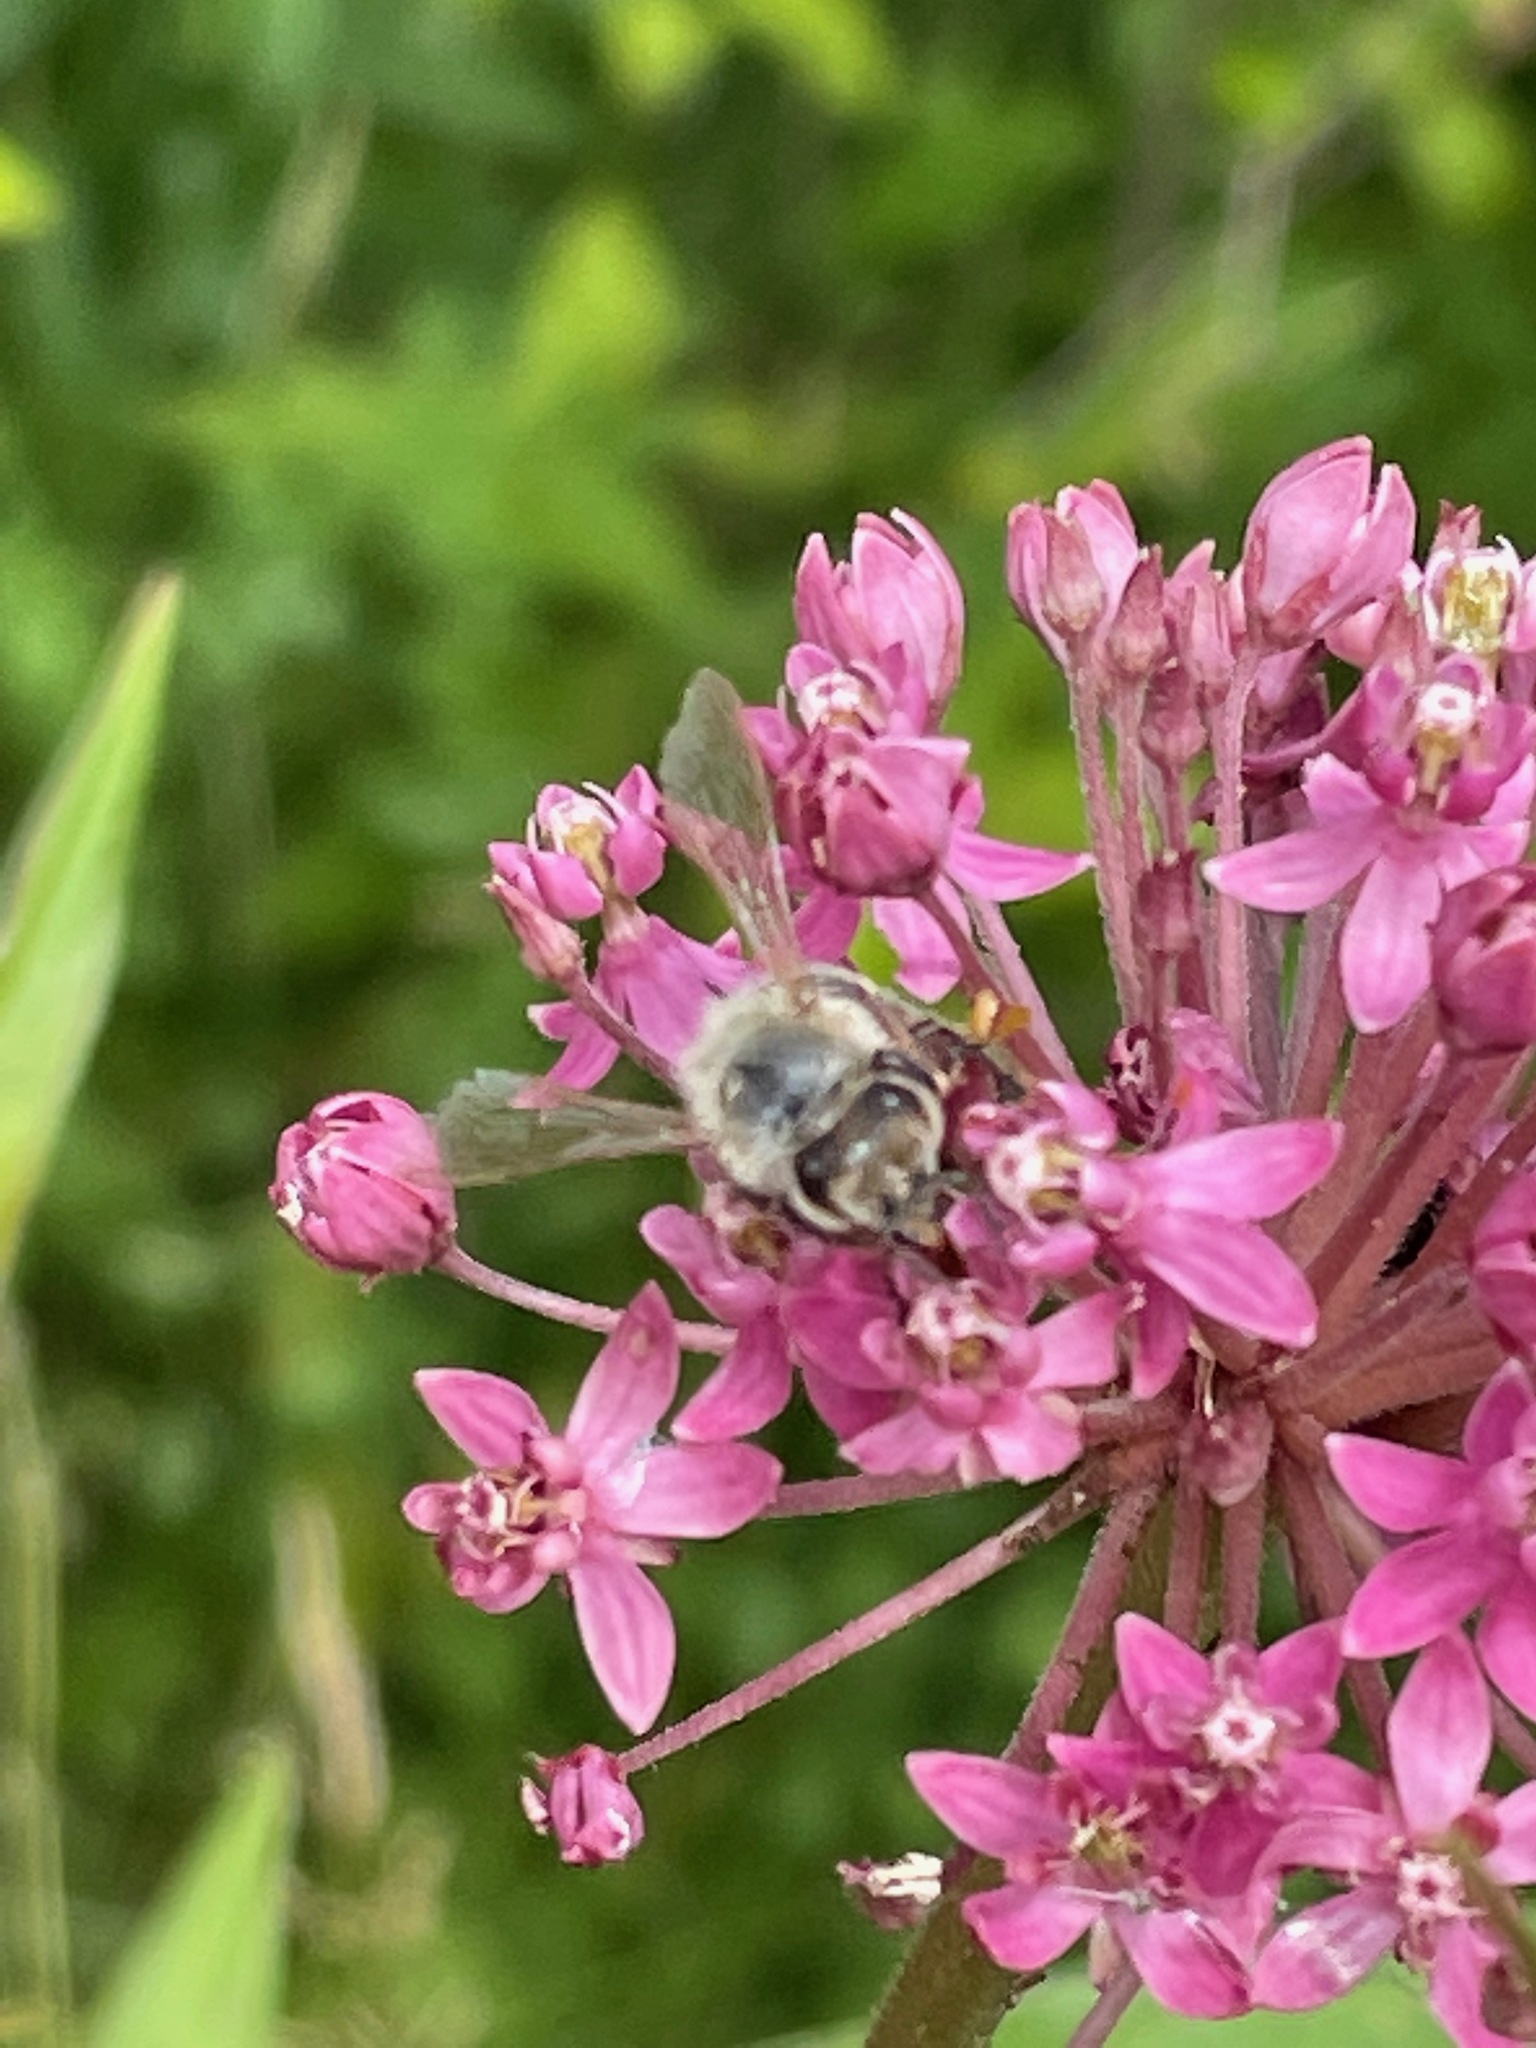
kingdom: Animalia
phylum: Arthropoda
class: Insecta
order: Hymenoptera
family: Apidae
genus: Apis
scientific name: Apis mellifera
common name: Honey bee
